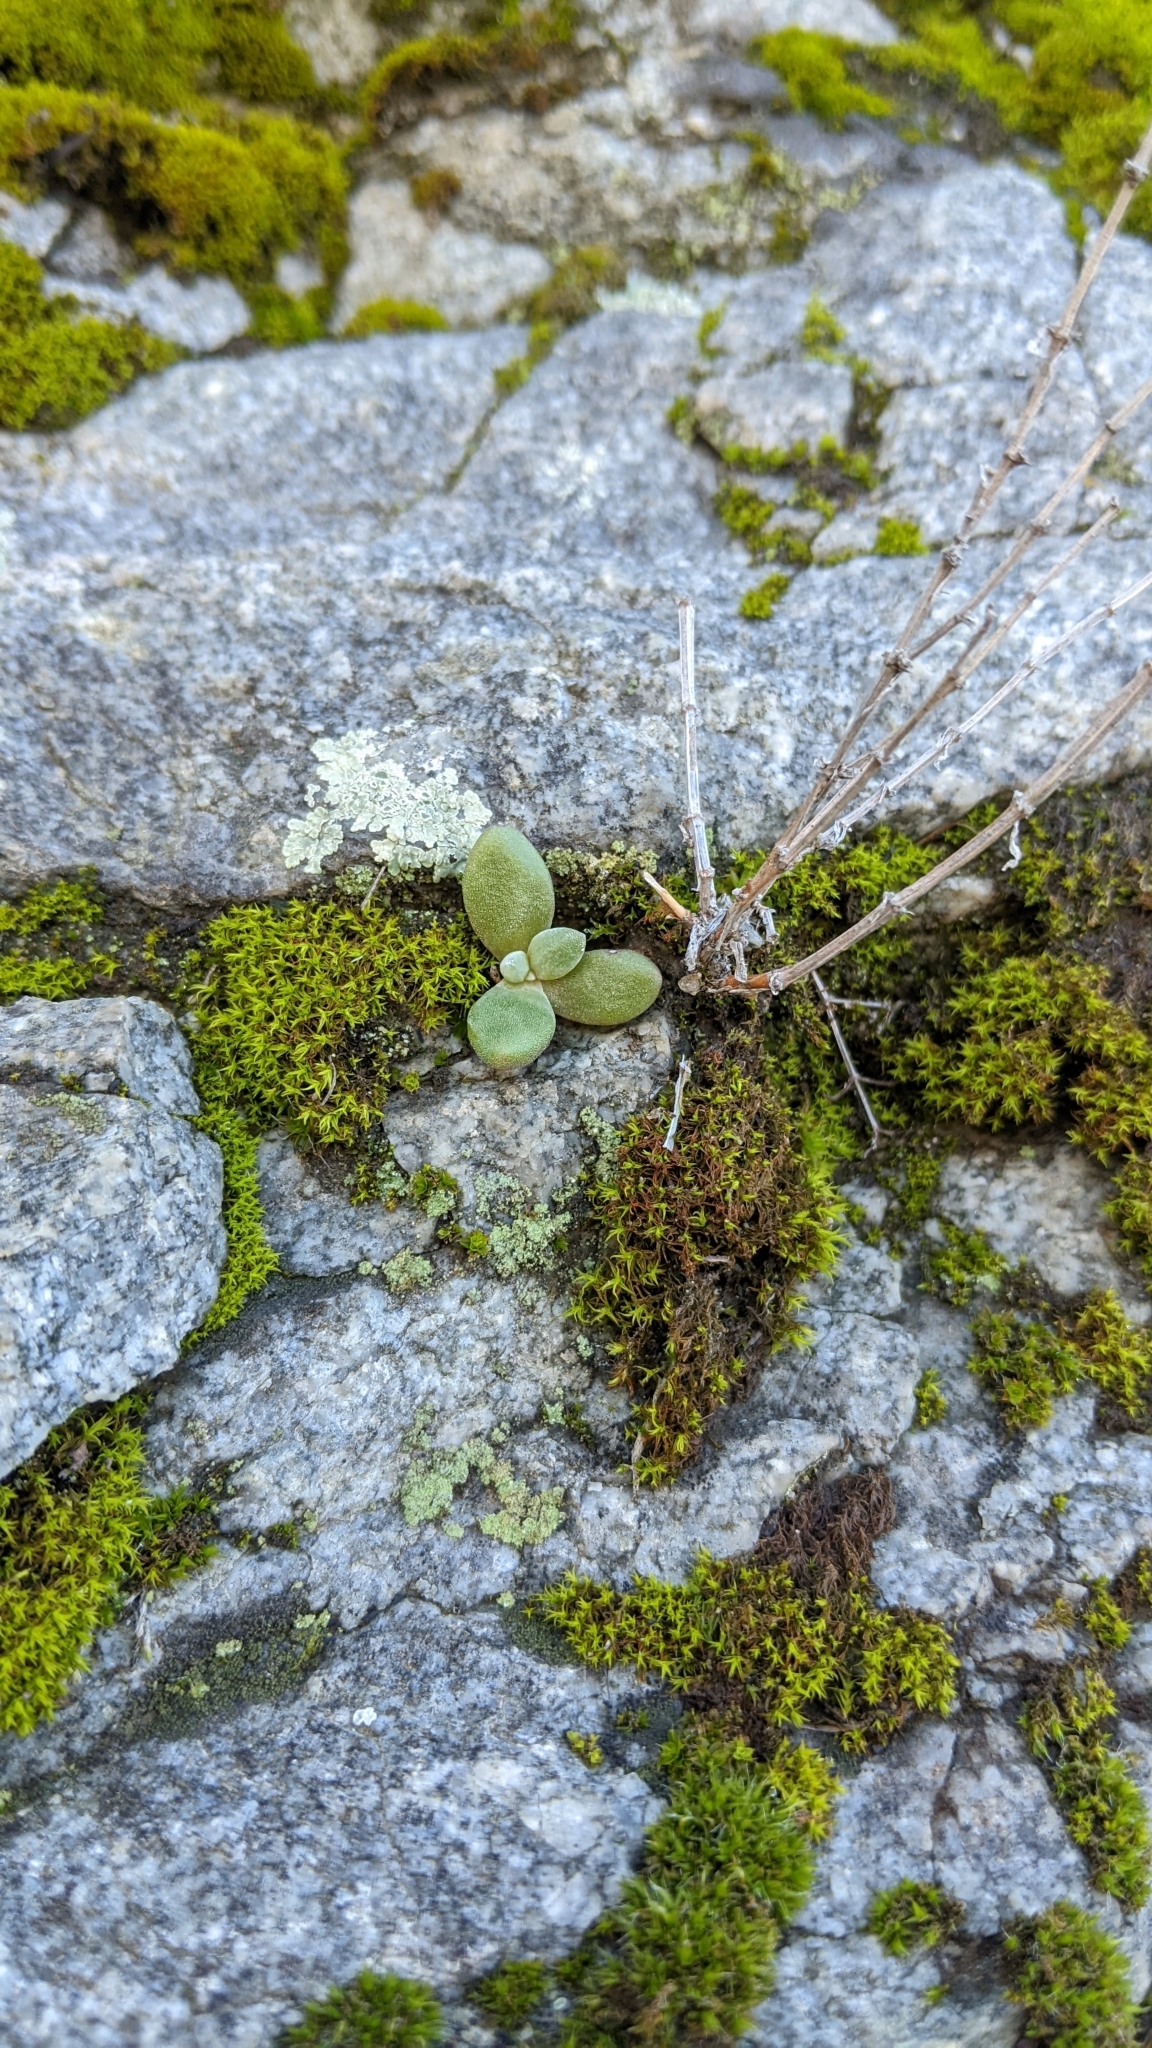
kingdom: Plantae
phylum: Tracheophyta
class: Magnoliopsida
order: Saxifragales
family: Crassulaceae
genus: Dudleya
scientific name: Dudleya densiflora
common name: San gabriel mountains dudleya
